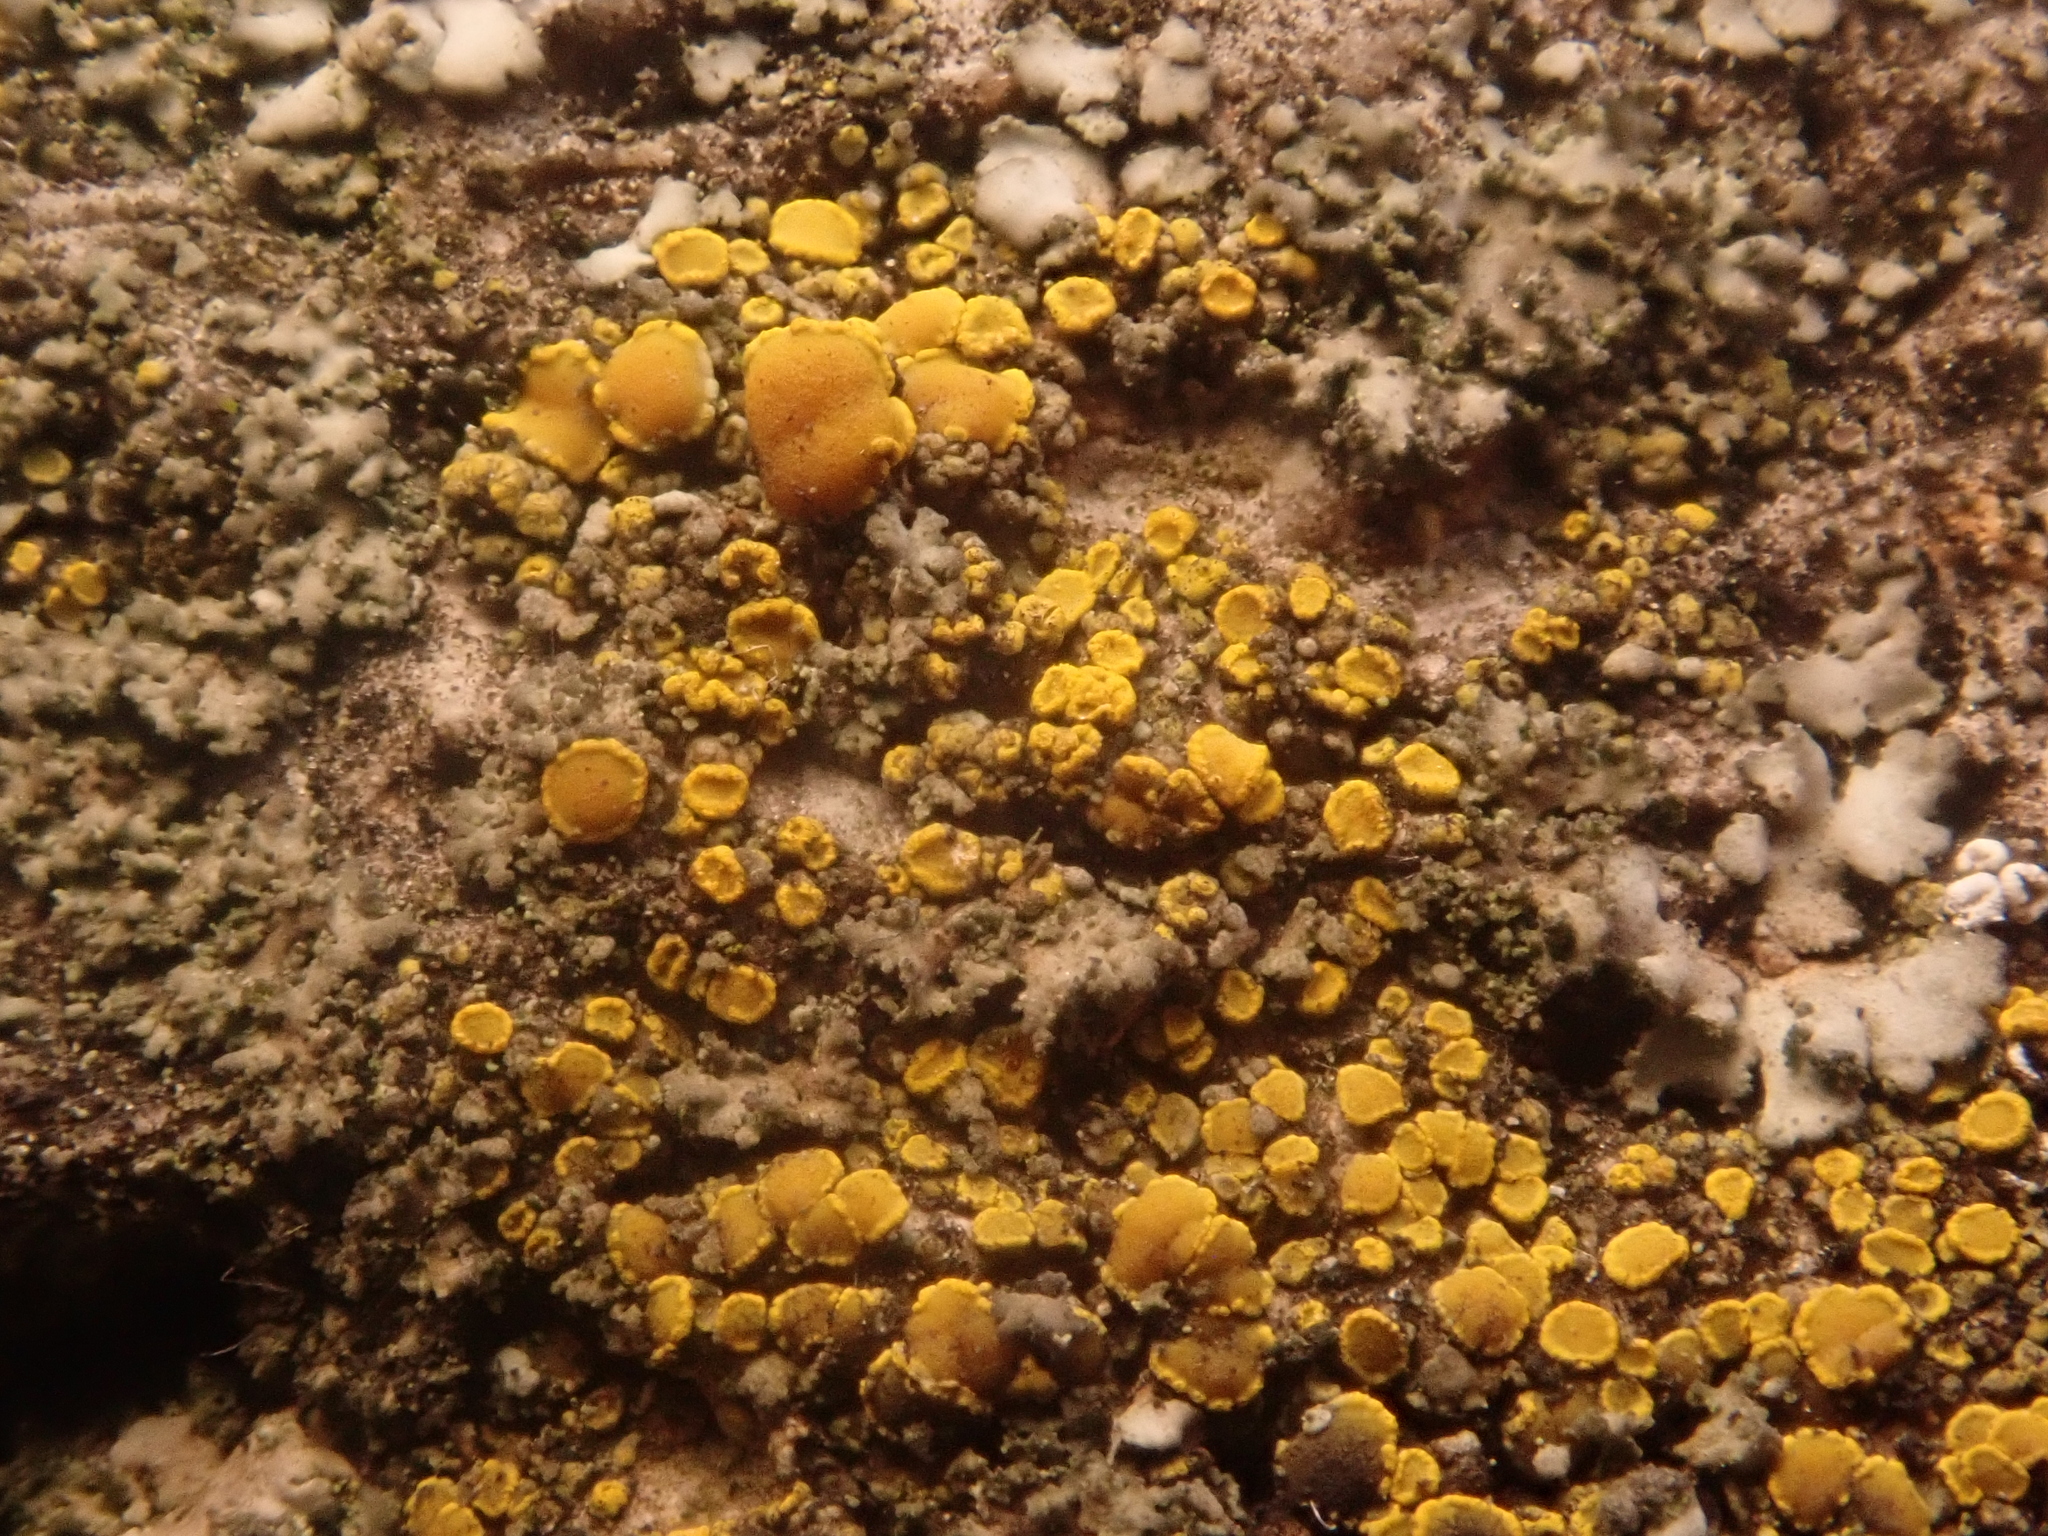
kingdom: Fungi
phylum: Ascomycota
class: Candelariomycetes
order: Candelariales
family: Candelariaceae
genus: Candelariella
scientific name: Candelariella vitellina
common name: Common goldspeck
